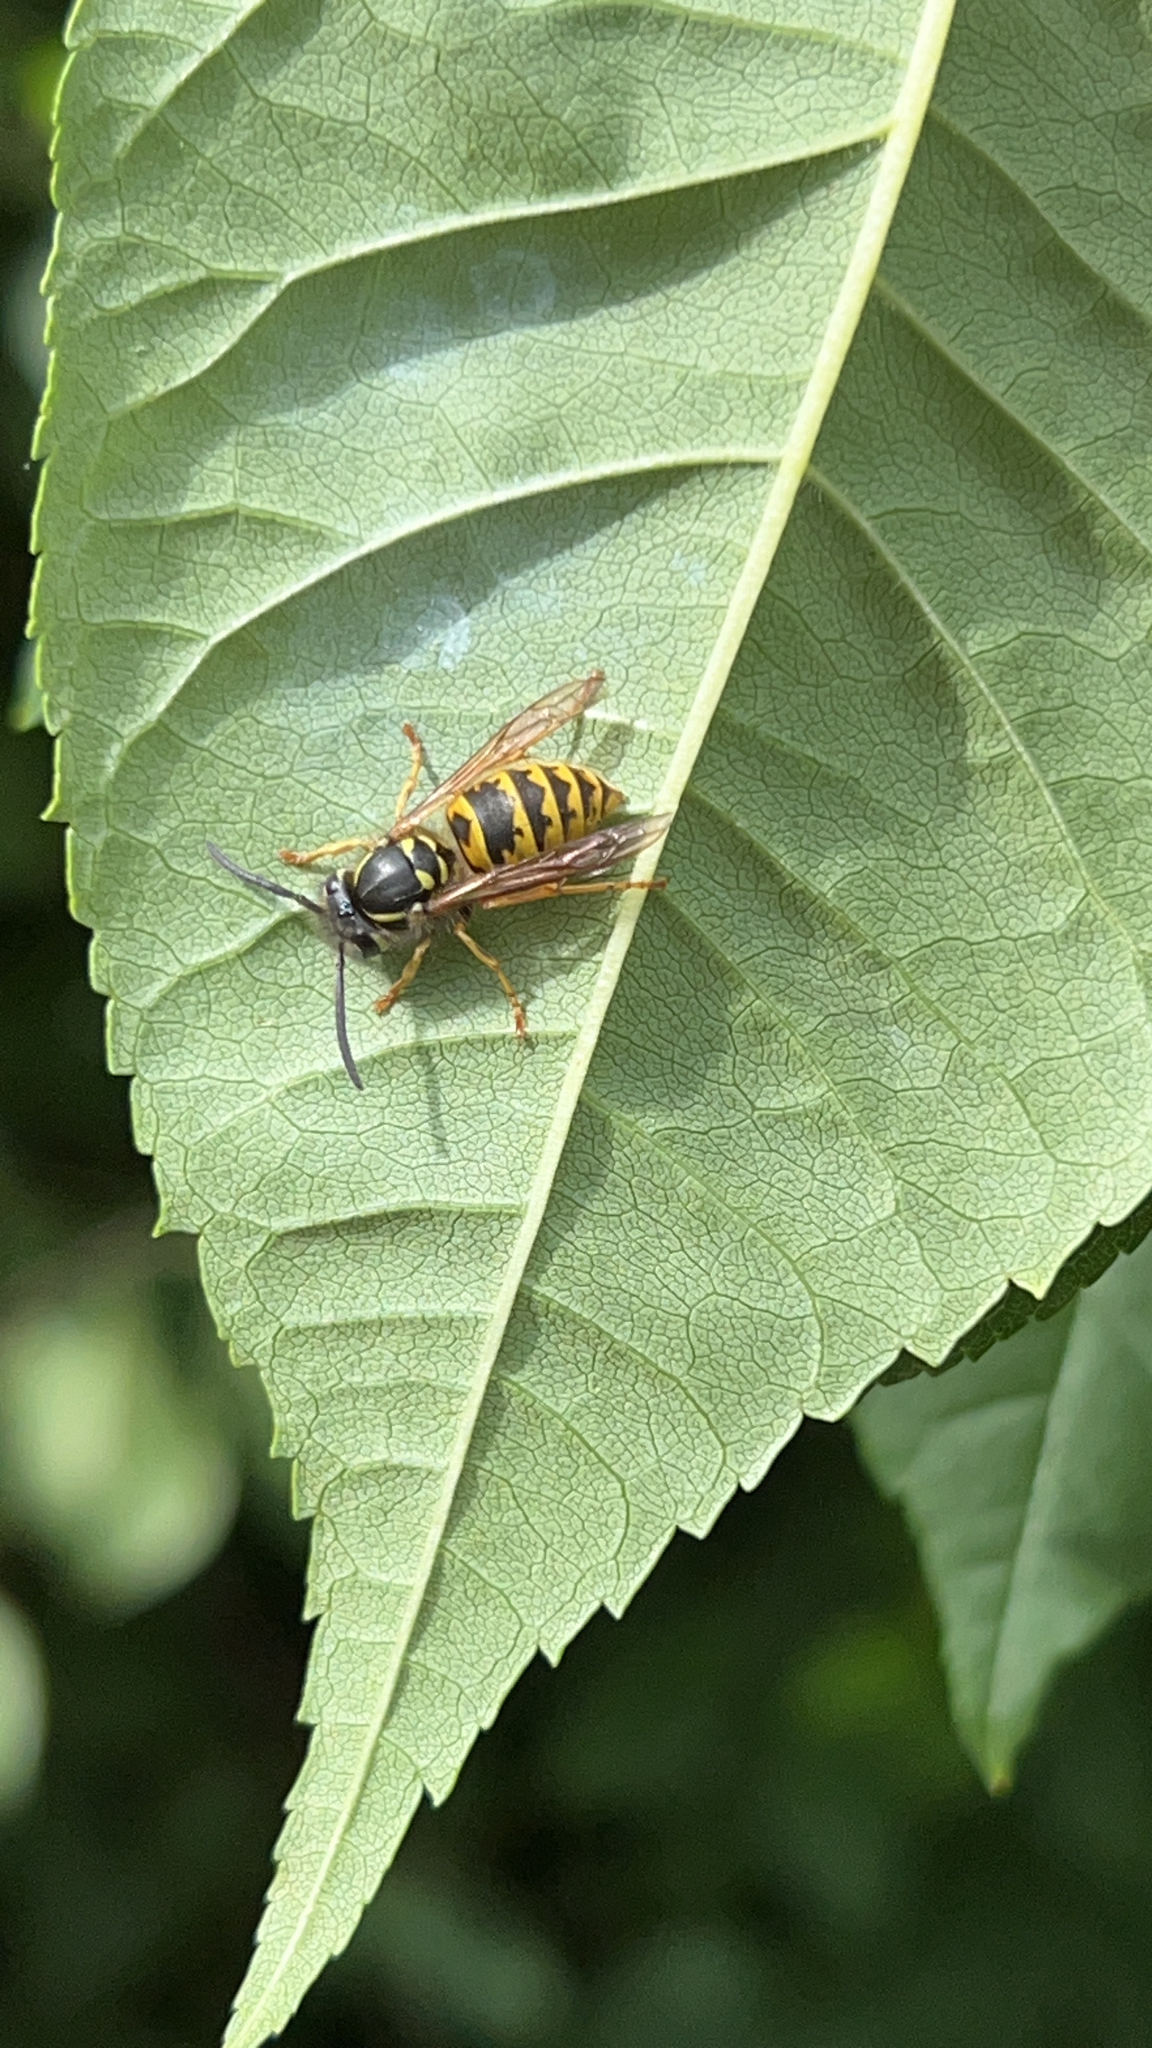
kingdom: Animalia
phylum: Arthropoda
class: Insecta
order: Hymenoptera
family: Vespidae
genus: Vespula
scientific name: Vespula vulgaris
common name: Common wasp
